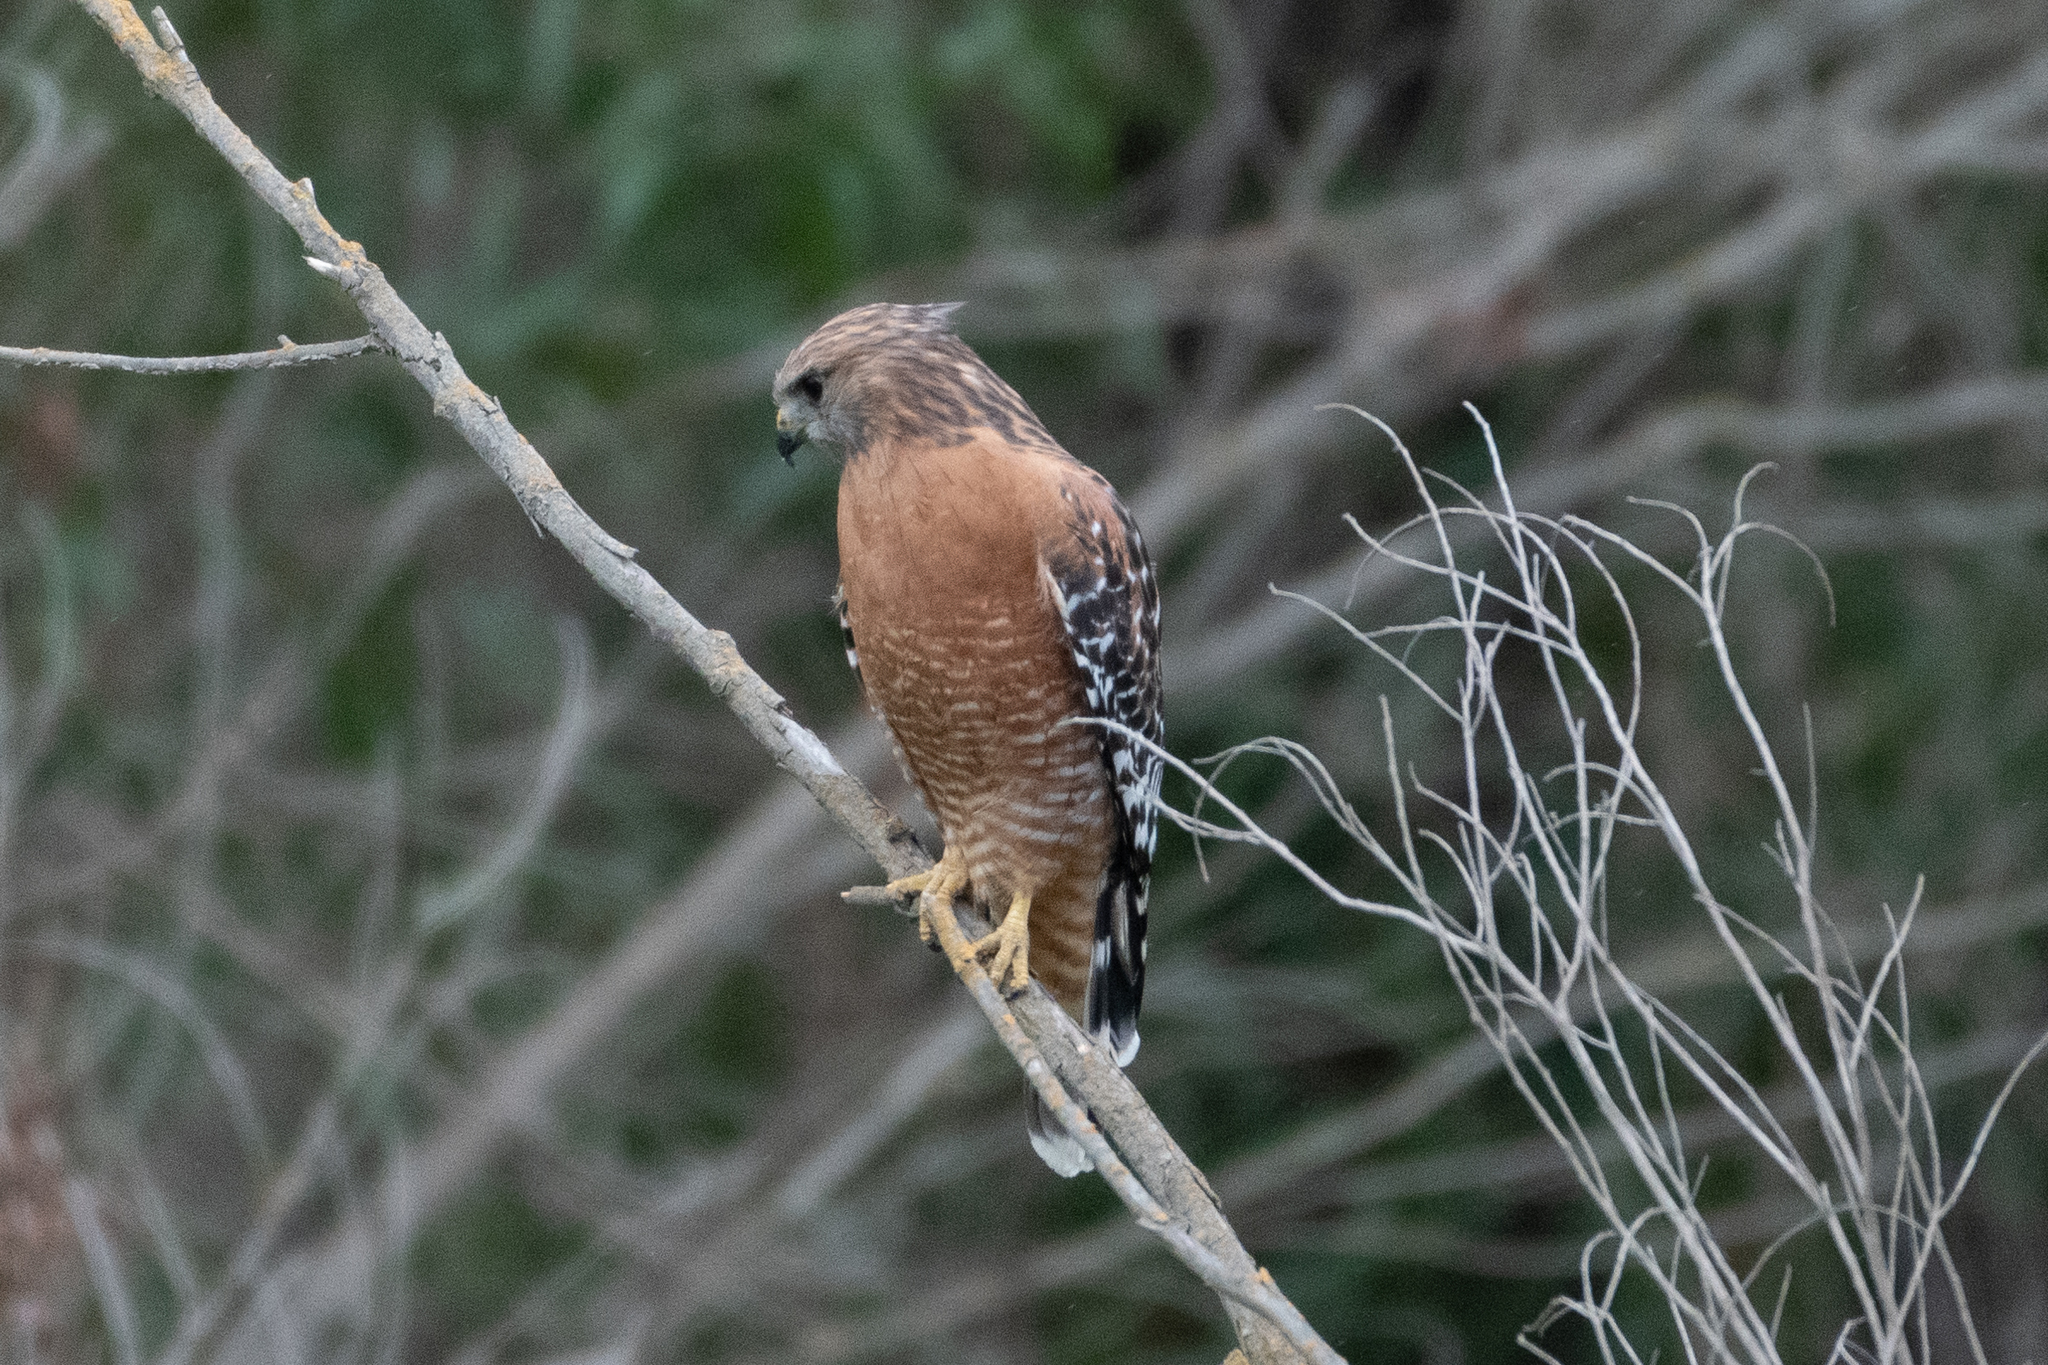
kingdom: Animalia
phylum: Chordata
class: Aves
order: Accipitriformes
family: Accipitridae
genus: Buteo
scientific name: Buteo lineatus
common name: Red-shouldered hawk
